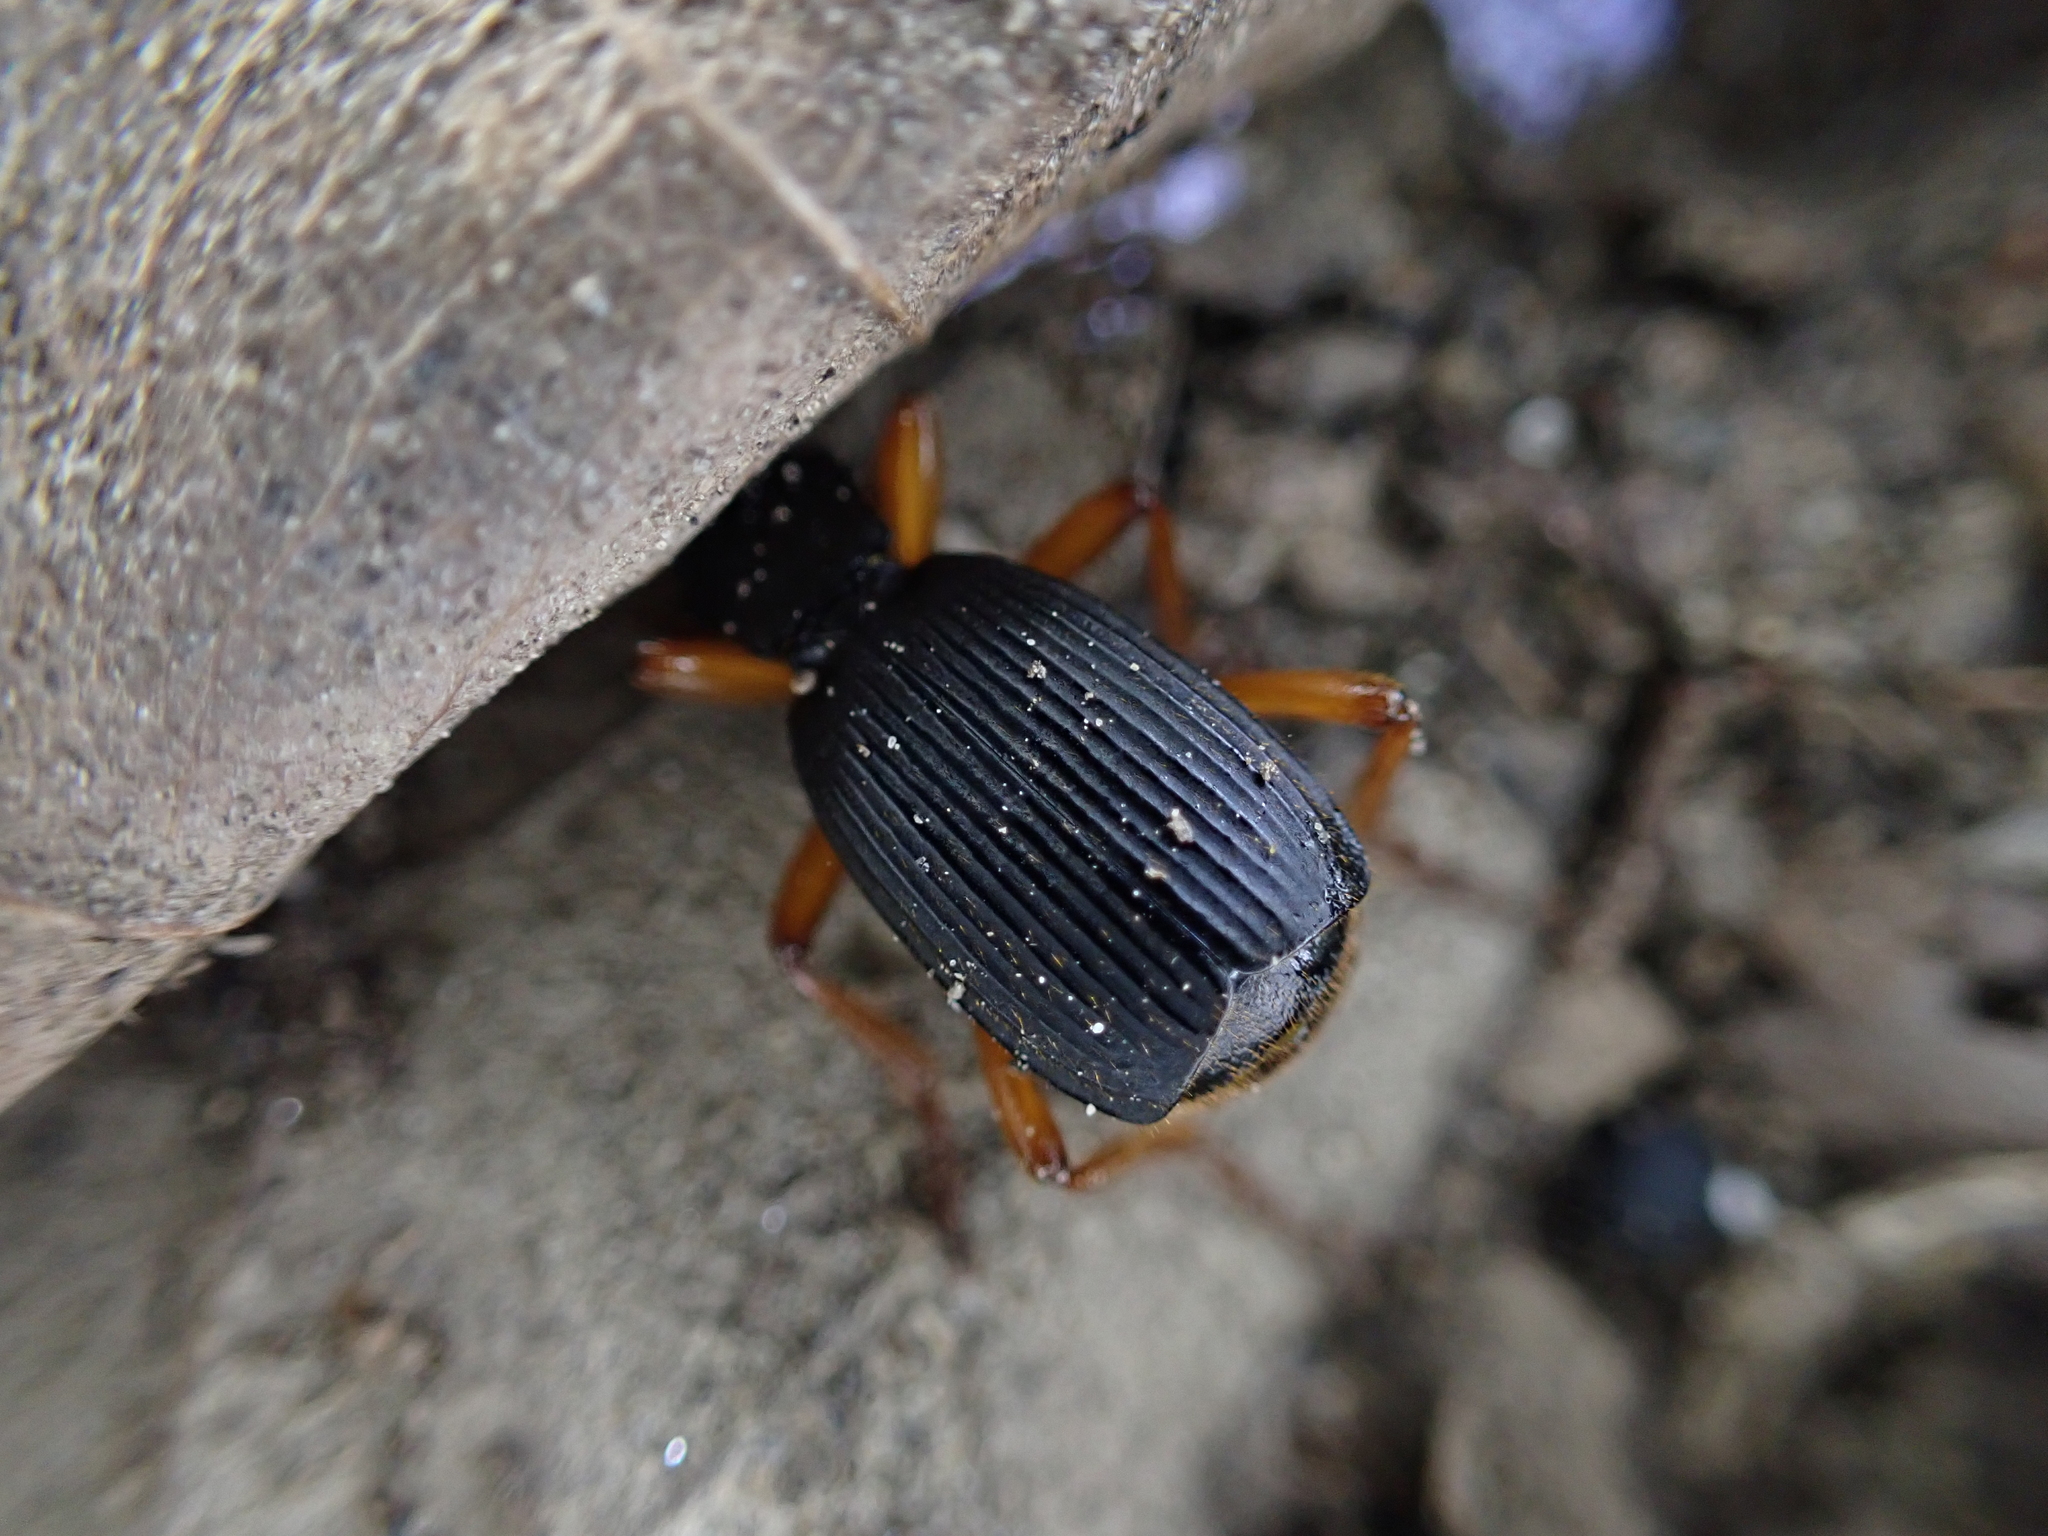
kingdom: Animalia
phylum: Arthropoda
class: Insecta
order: Coleoptera
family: Carabidae
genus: Aptinus
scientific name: Aptinus bombarda
